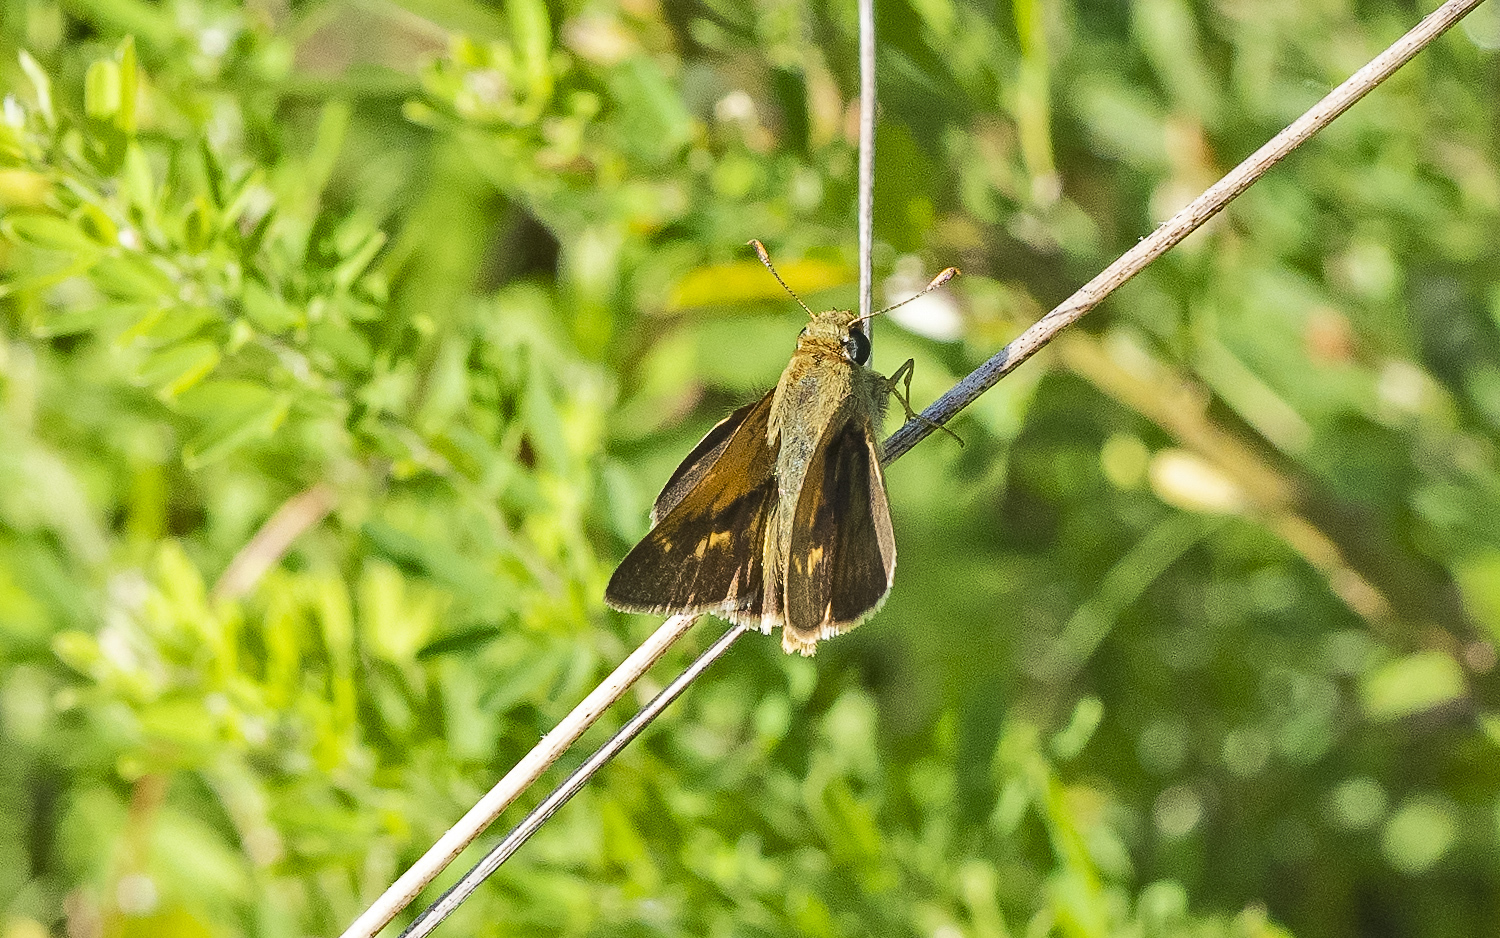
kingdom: Animalia
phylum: Arthropoda
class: Insecta
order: Lepidoptera
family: Hesperiidae
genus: Polites
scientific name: Polites origenes
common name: Crossline skipper
